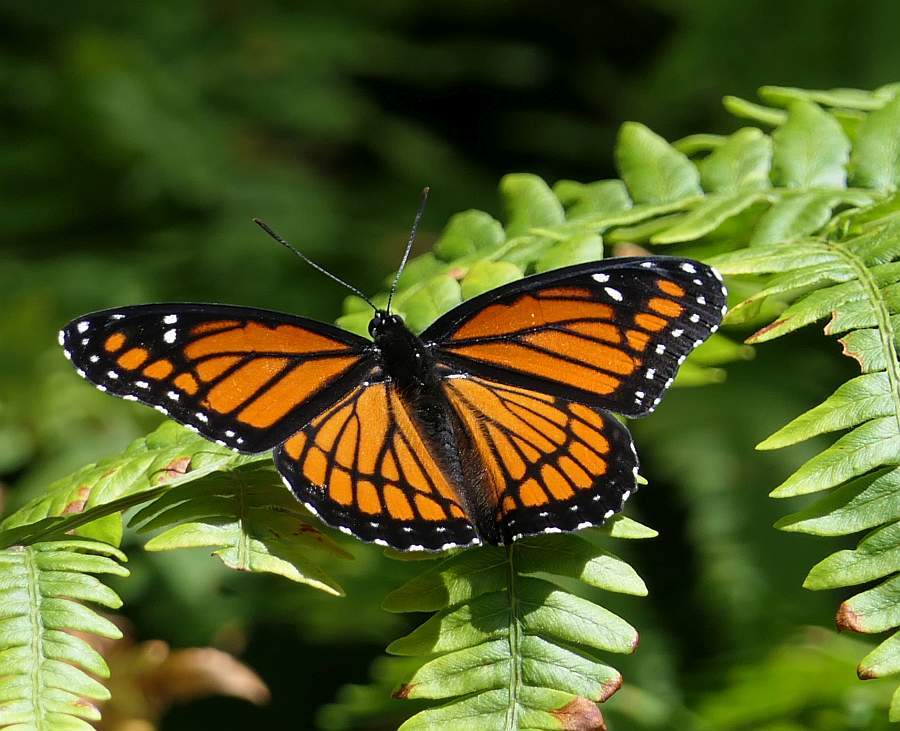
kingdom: Animalia
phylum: Arthropoda
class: Insecta
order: Lepidoptera
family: Nymphalidae
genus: Limenitis
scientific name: Limenitis archippus
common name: Viceroy
